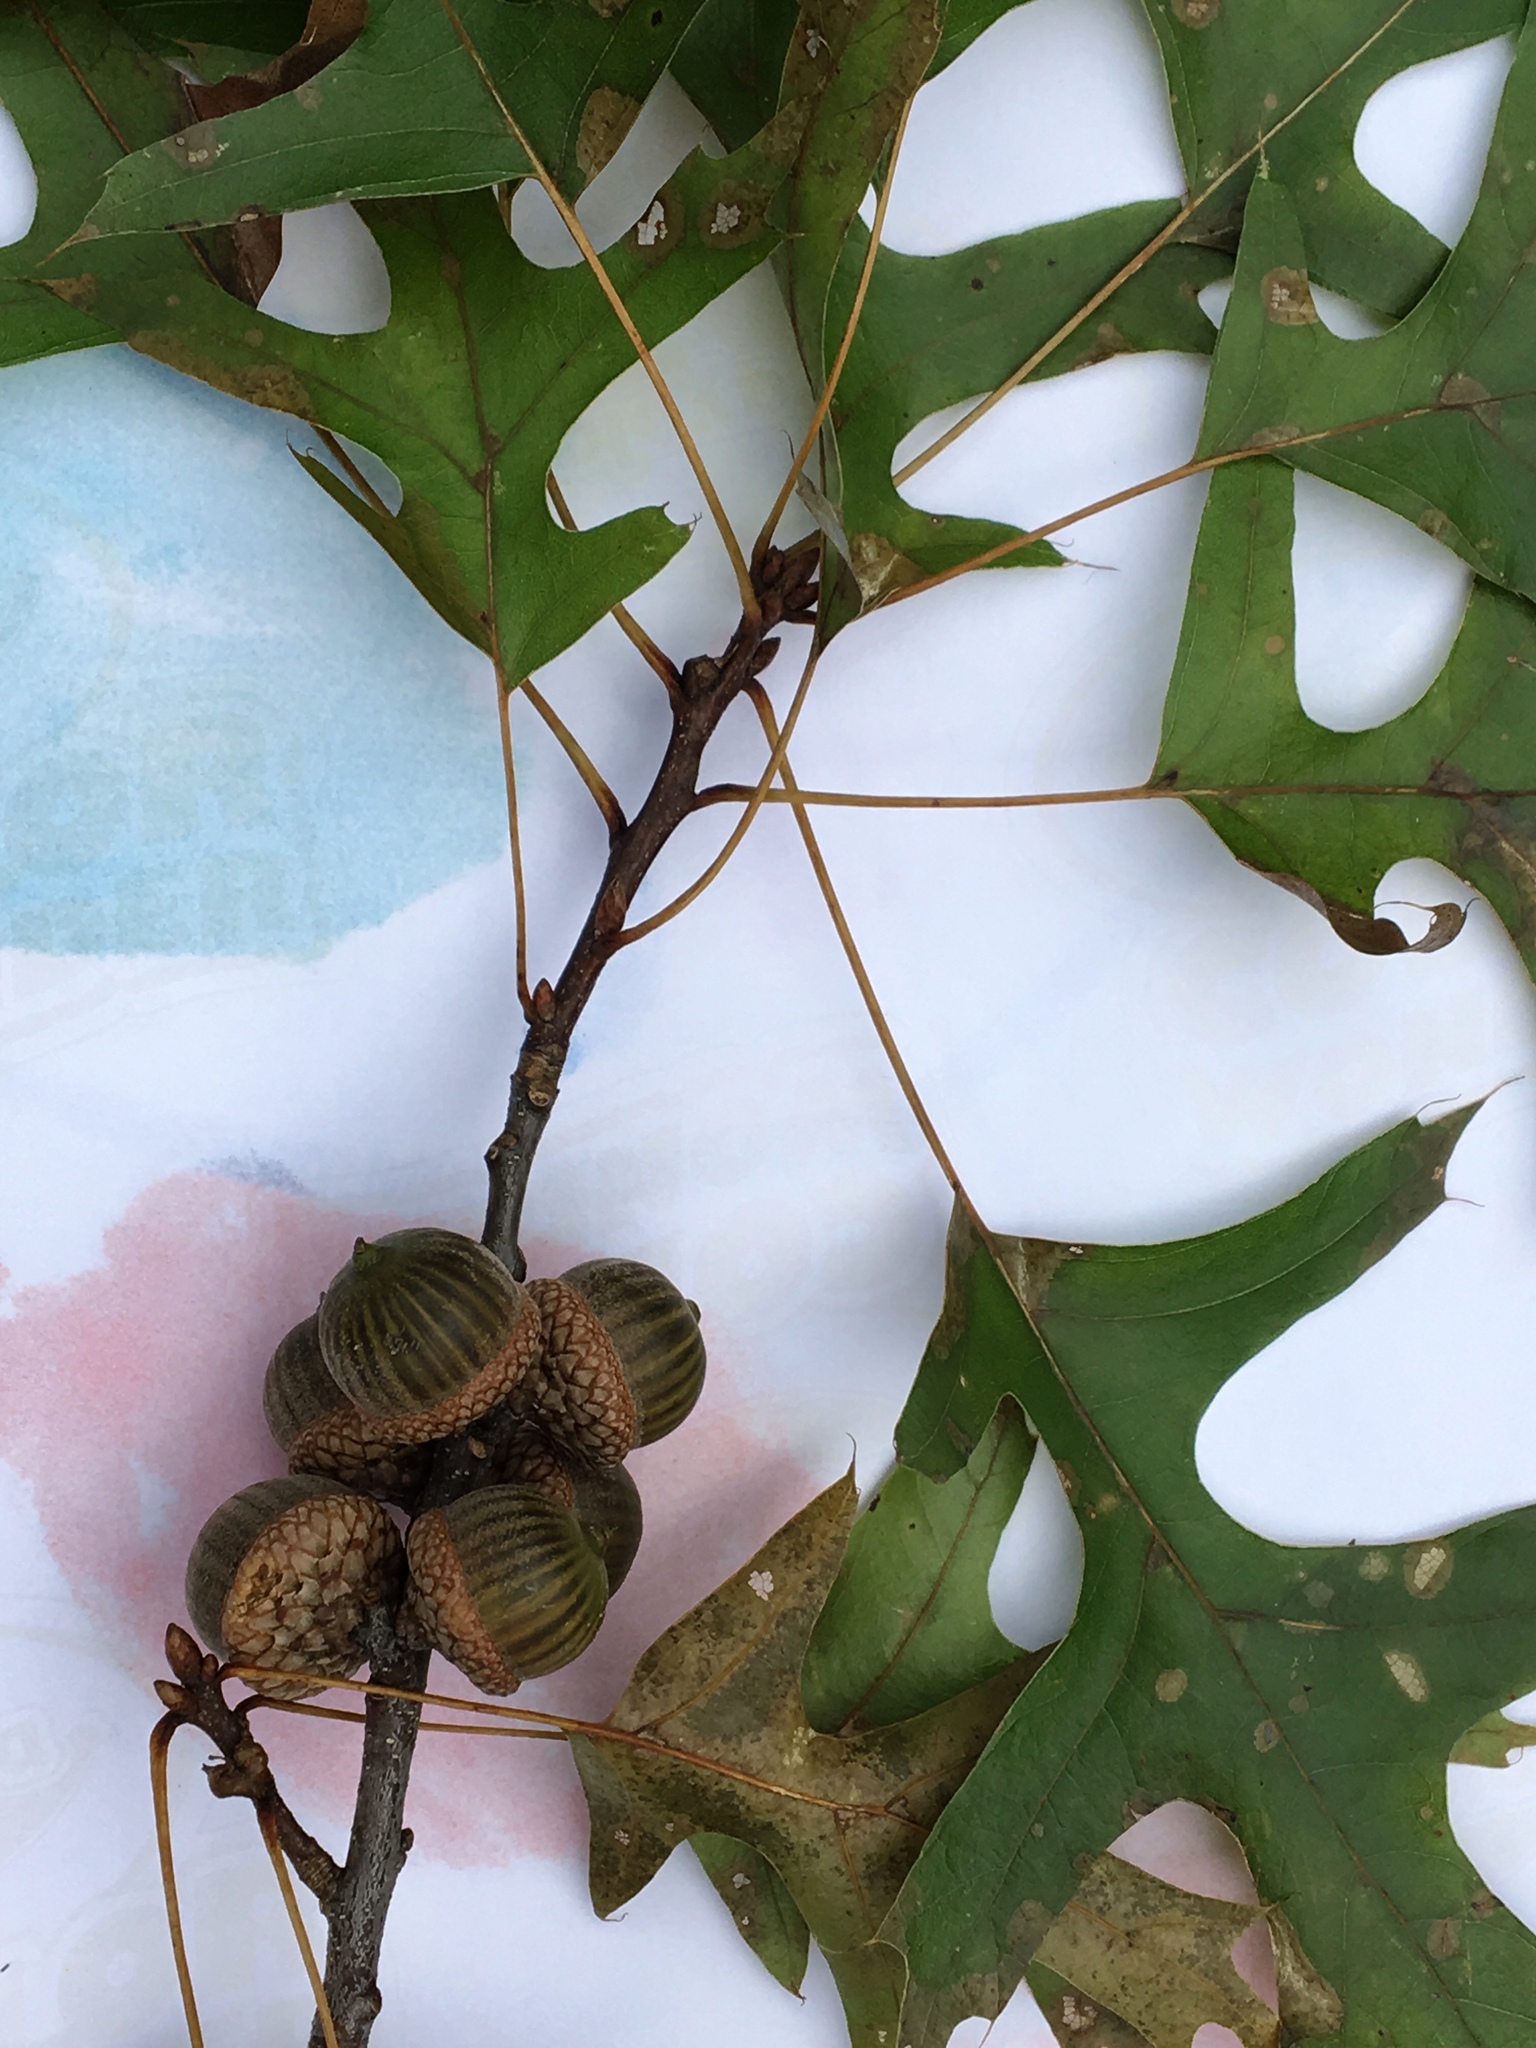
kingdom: Plantae
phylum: Tracheophyta
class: Magnoliopsida
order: Fagales
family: Fagaceae
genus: Quercus
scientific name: Quercus palustris
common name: Pin oak
